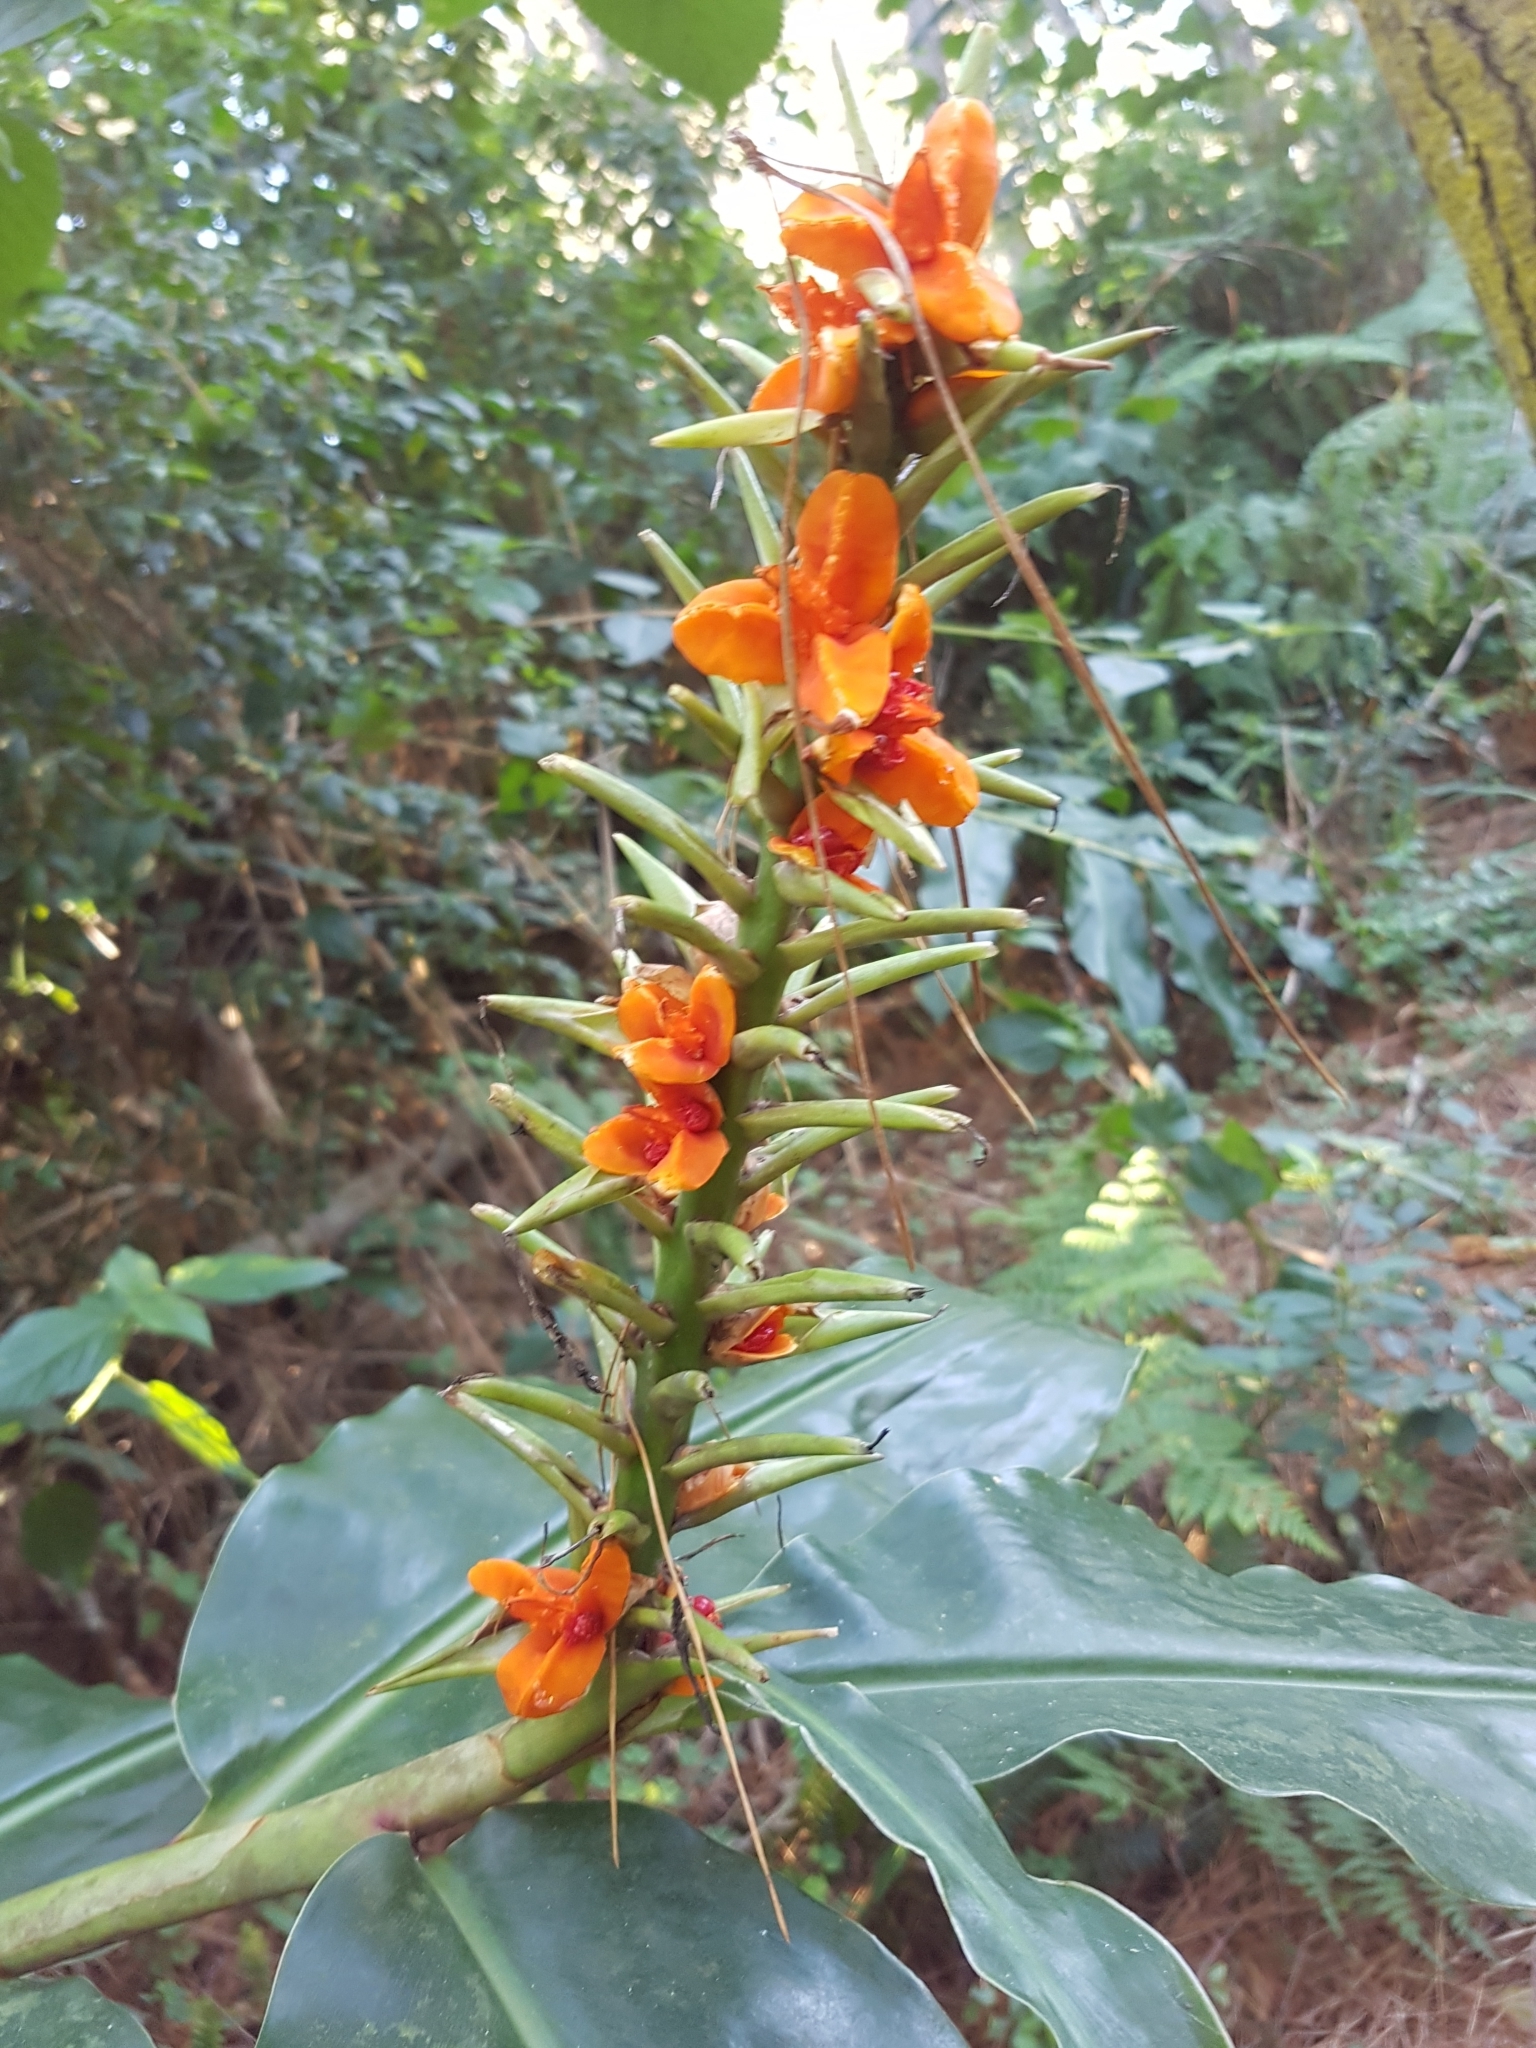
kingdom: Plantae
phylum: Tracheophyta
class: Liliopsida
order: Zingiberales
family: Zingiberaceae
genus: Hedychium
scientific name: Hedychium gardnerianum
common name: Himalayan ginger
